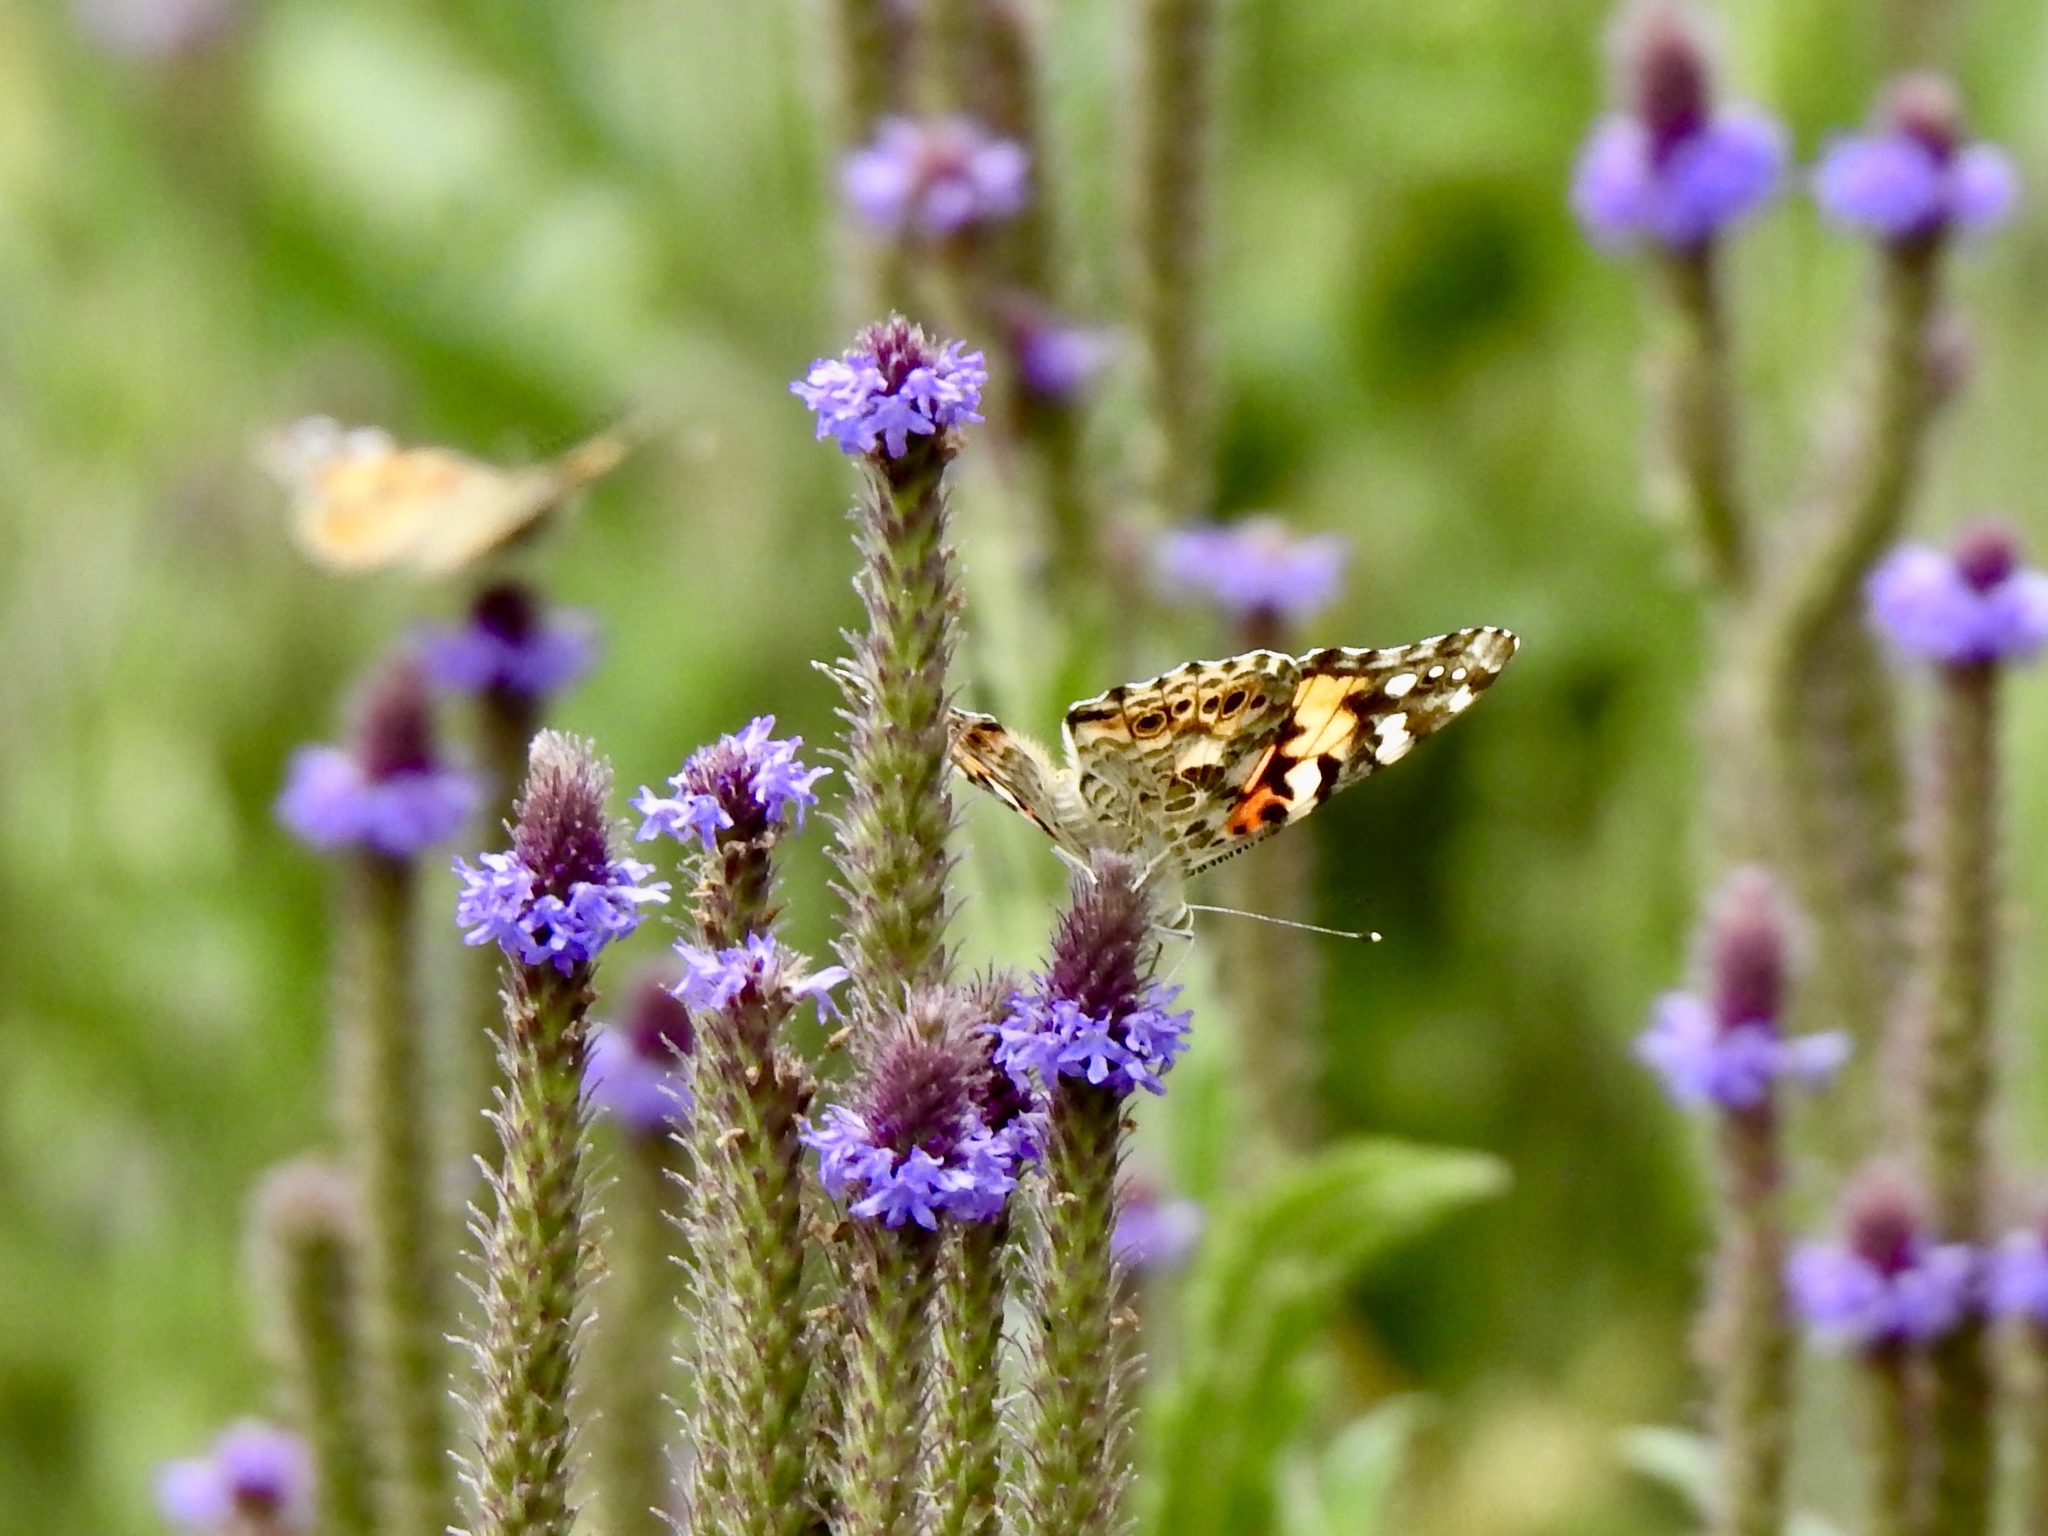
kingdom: Animalia
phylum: Arthropoda
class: Insecta
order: Lepidoptera
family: Nymphalidae
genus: Vanessa
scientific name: Vanessa cardui
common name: Painted lady
